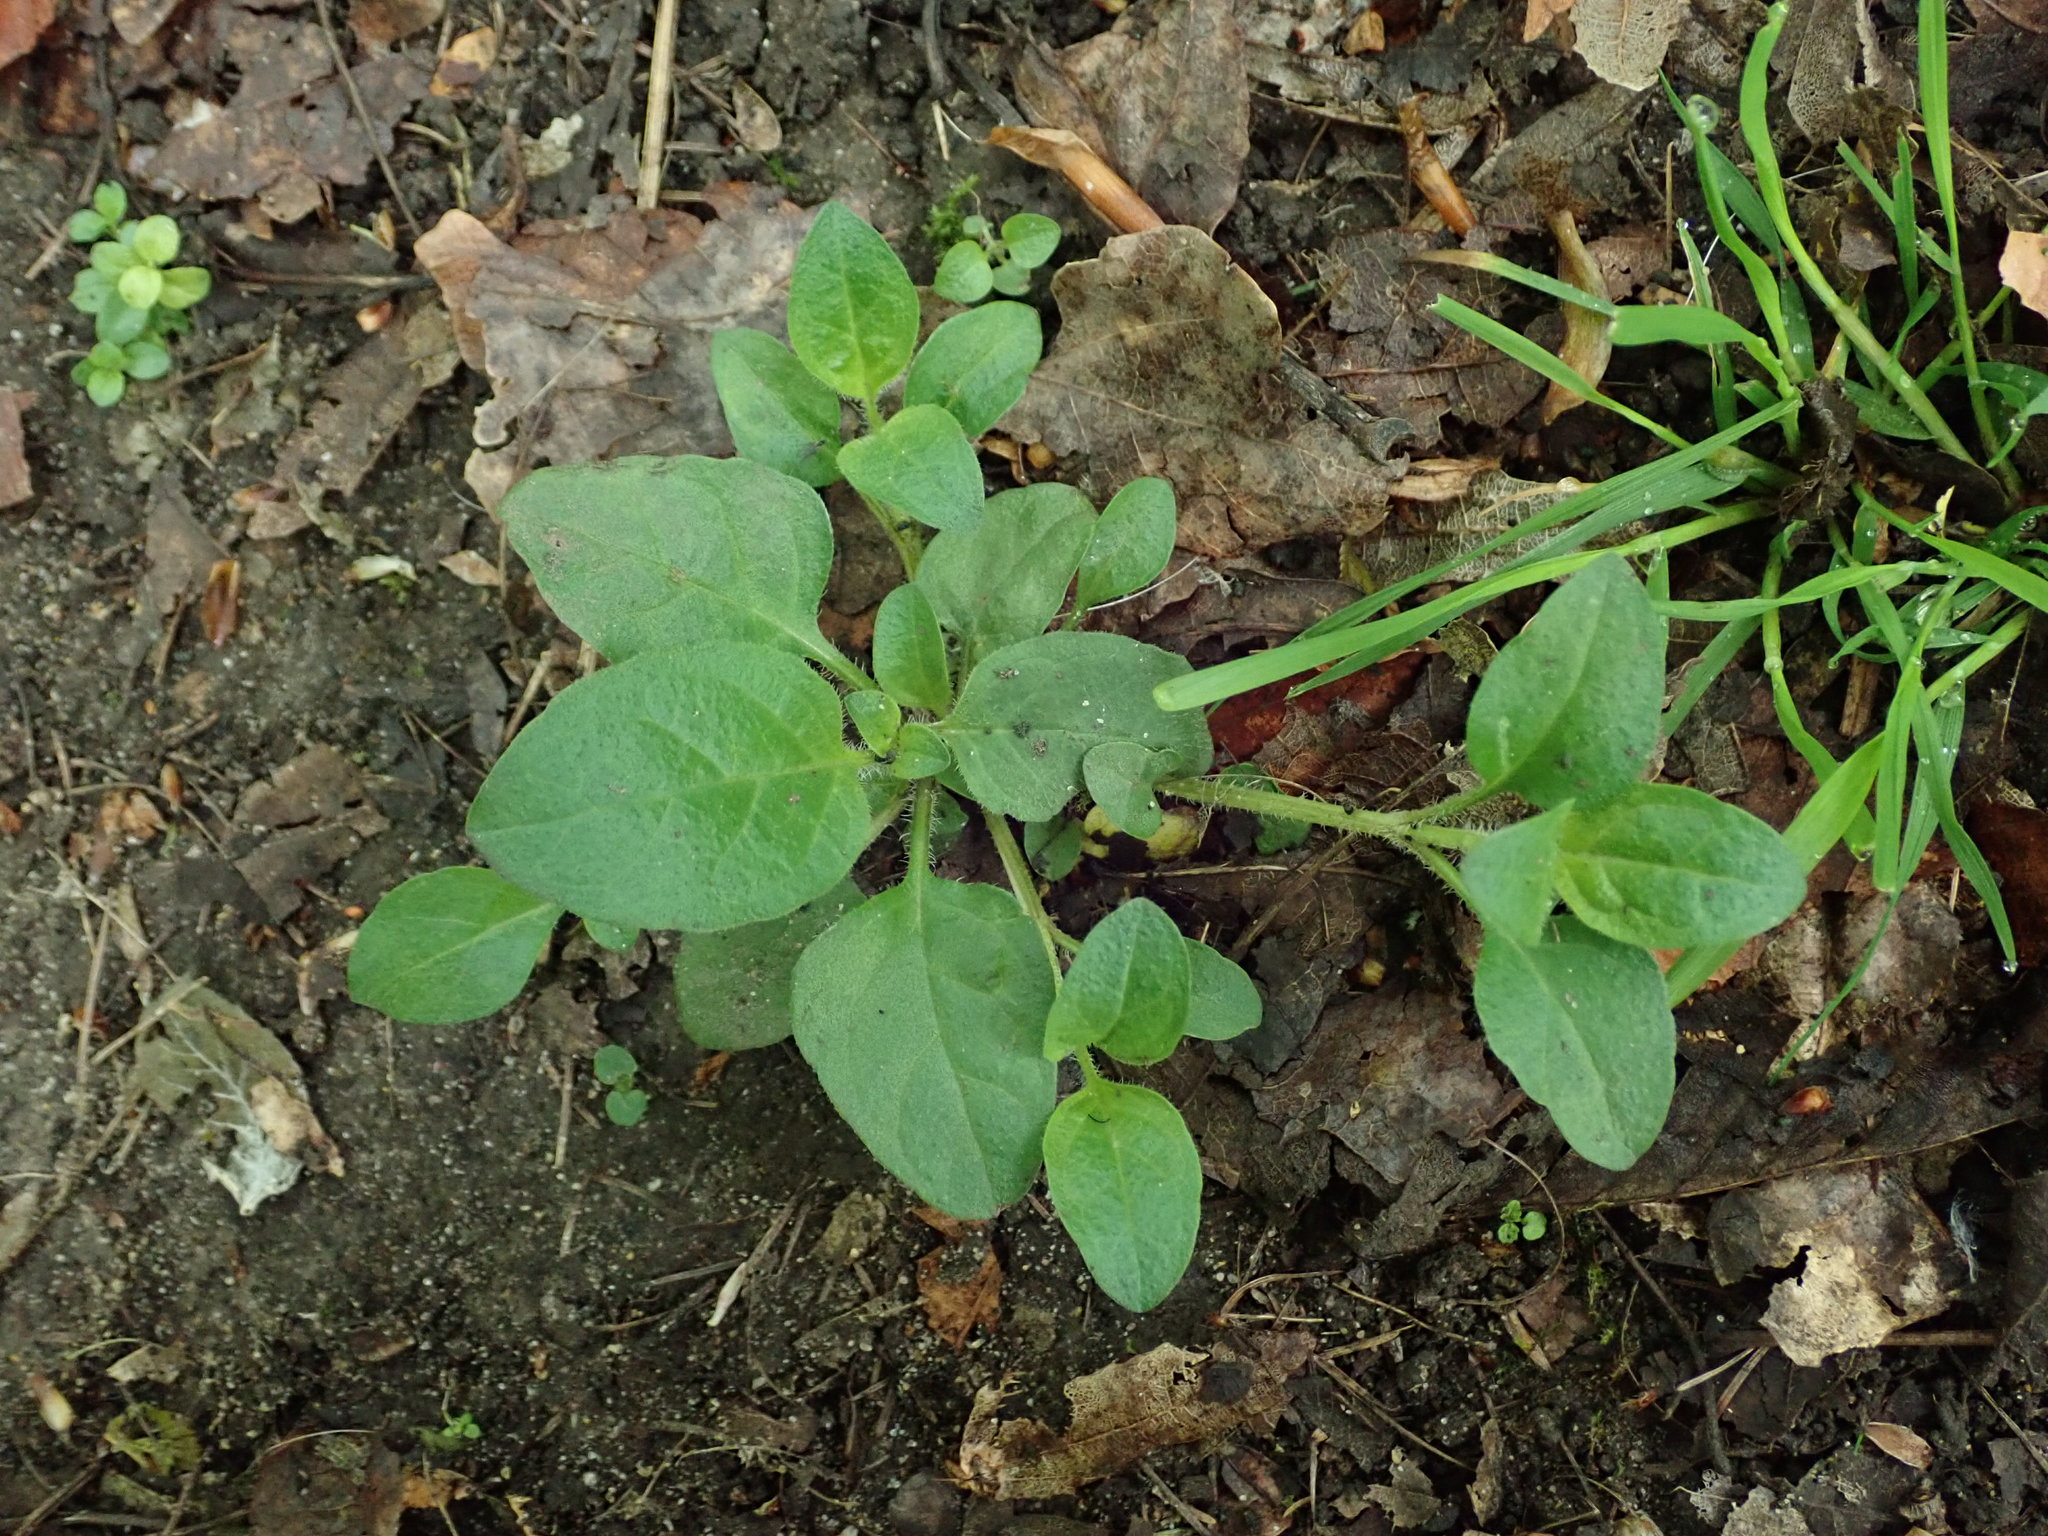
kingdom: Plantae
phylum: Tracheophyta
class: Magnoliopsida
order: Lamiales
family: Lamiaceae
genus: Prunella
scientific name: Prunella vulgaris
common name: Heal-all
